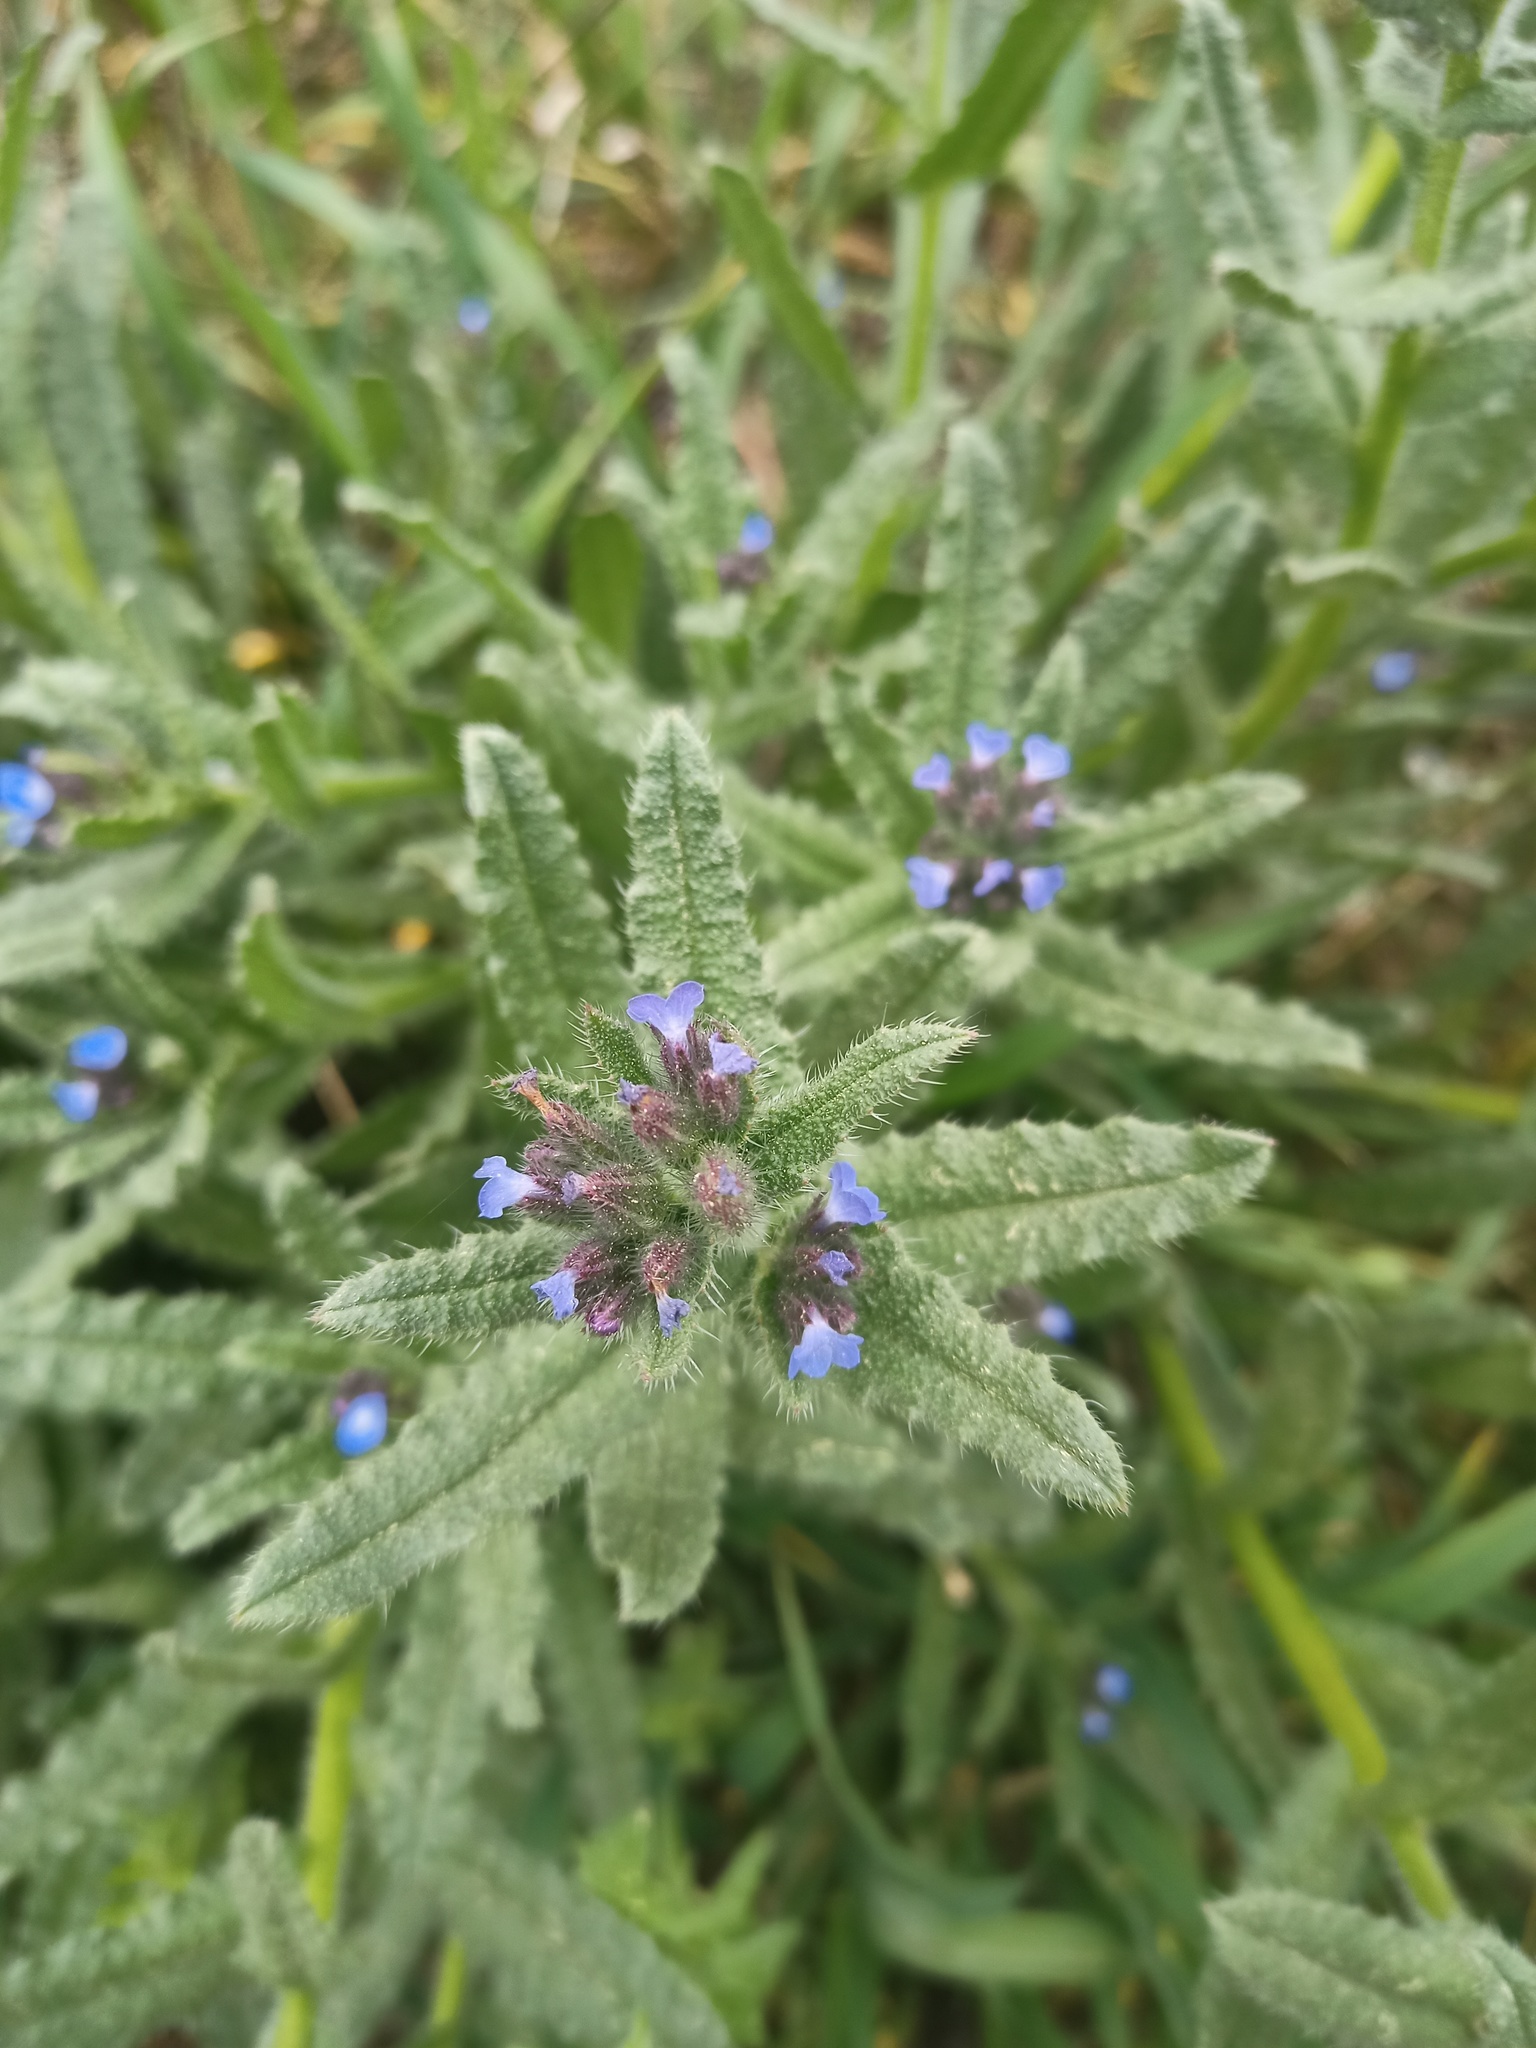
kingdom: Plantae
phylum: Tracheophyta
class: Magnoliopsida
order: Boraginales
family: Boraginaceae
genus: Lycopsis
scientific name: Lycopsis arvensis
